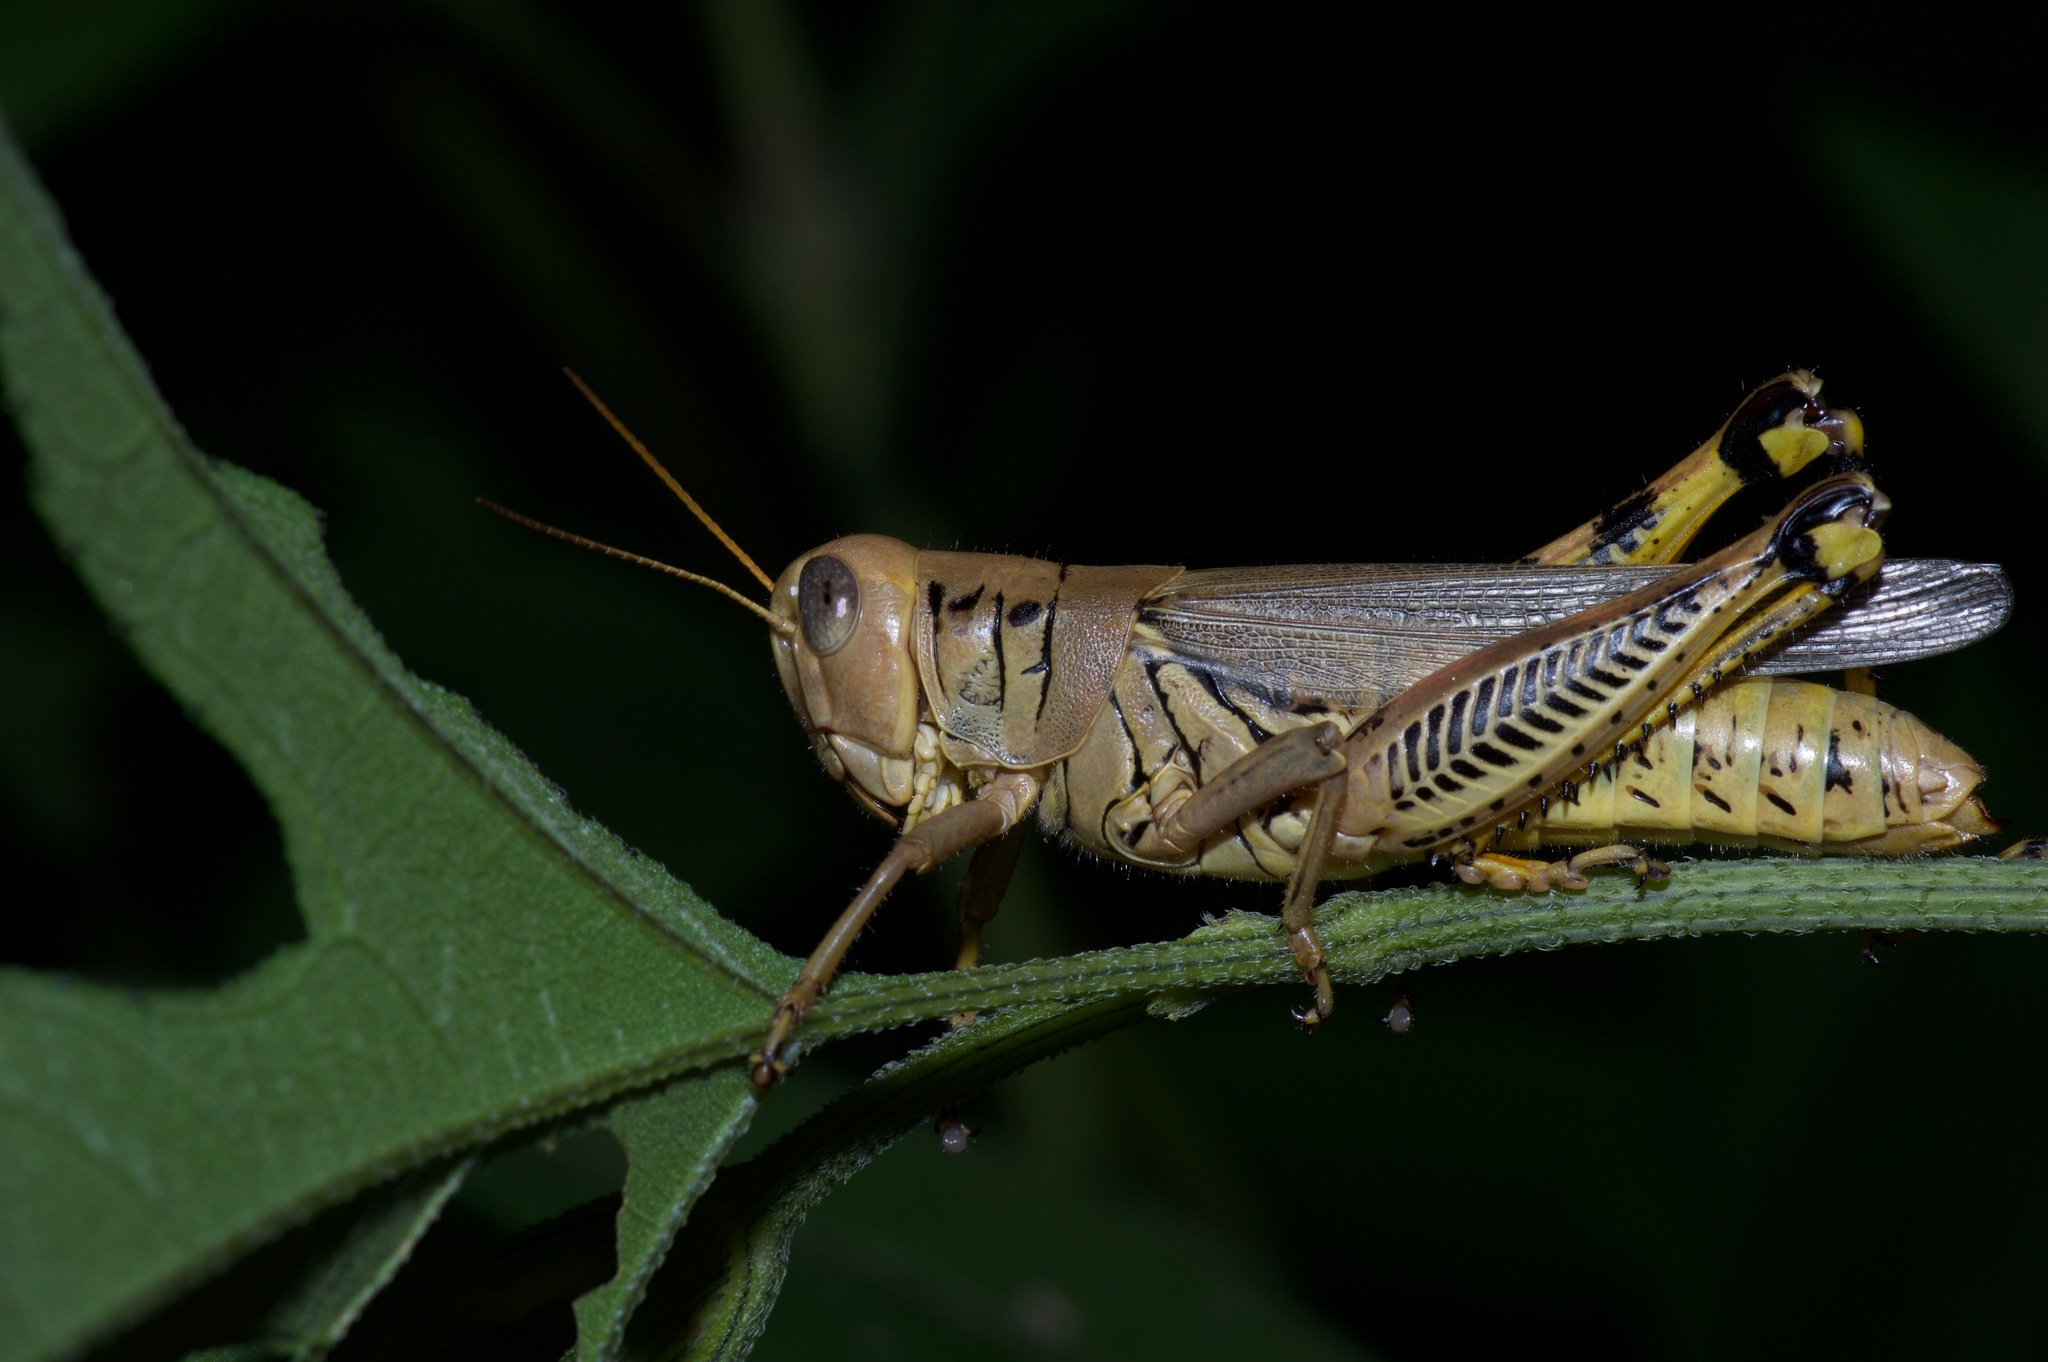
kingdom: Animalia
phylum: Arthropoda
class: Insecta
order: Orthoptera
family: Acrididae
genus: Melanoplus
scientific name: Melanoplus differentialis
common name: Differential grasshopper
